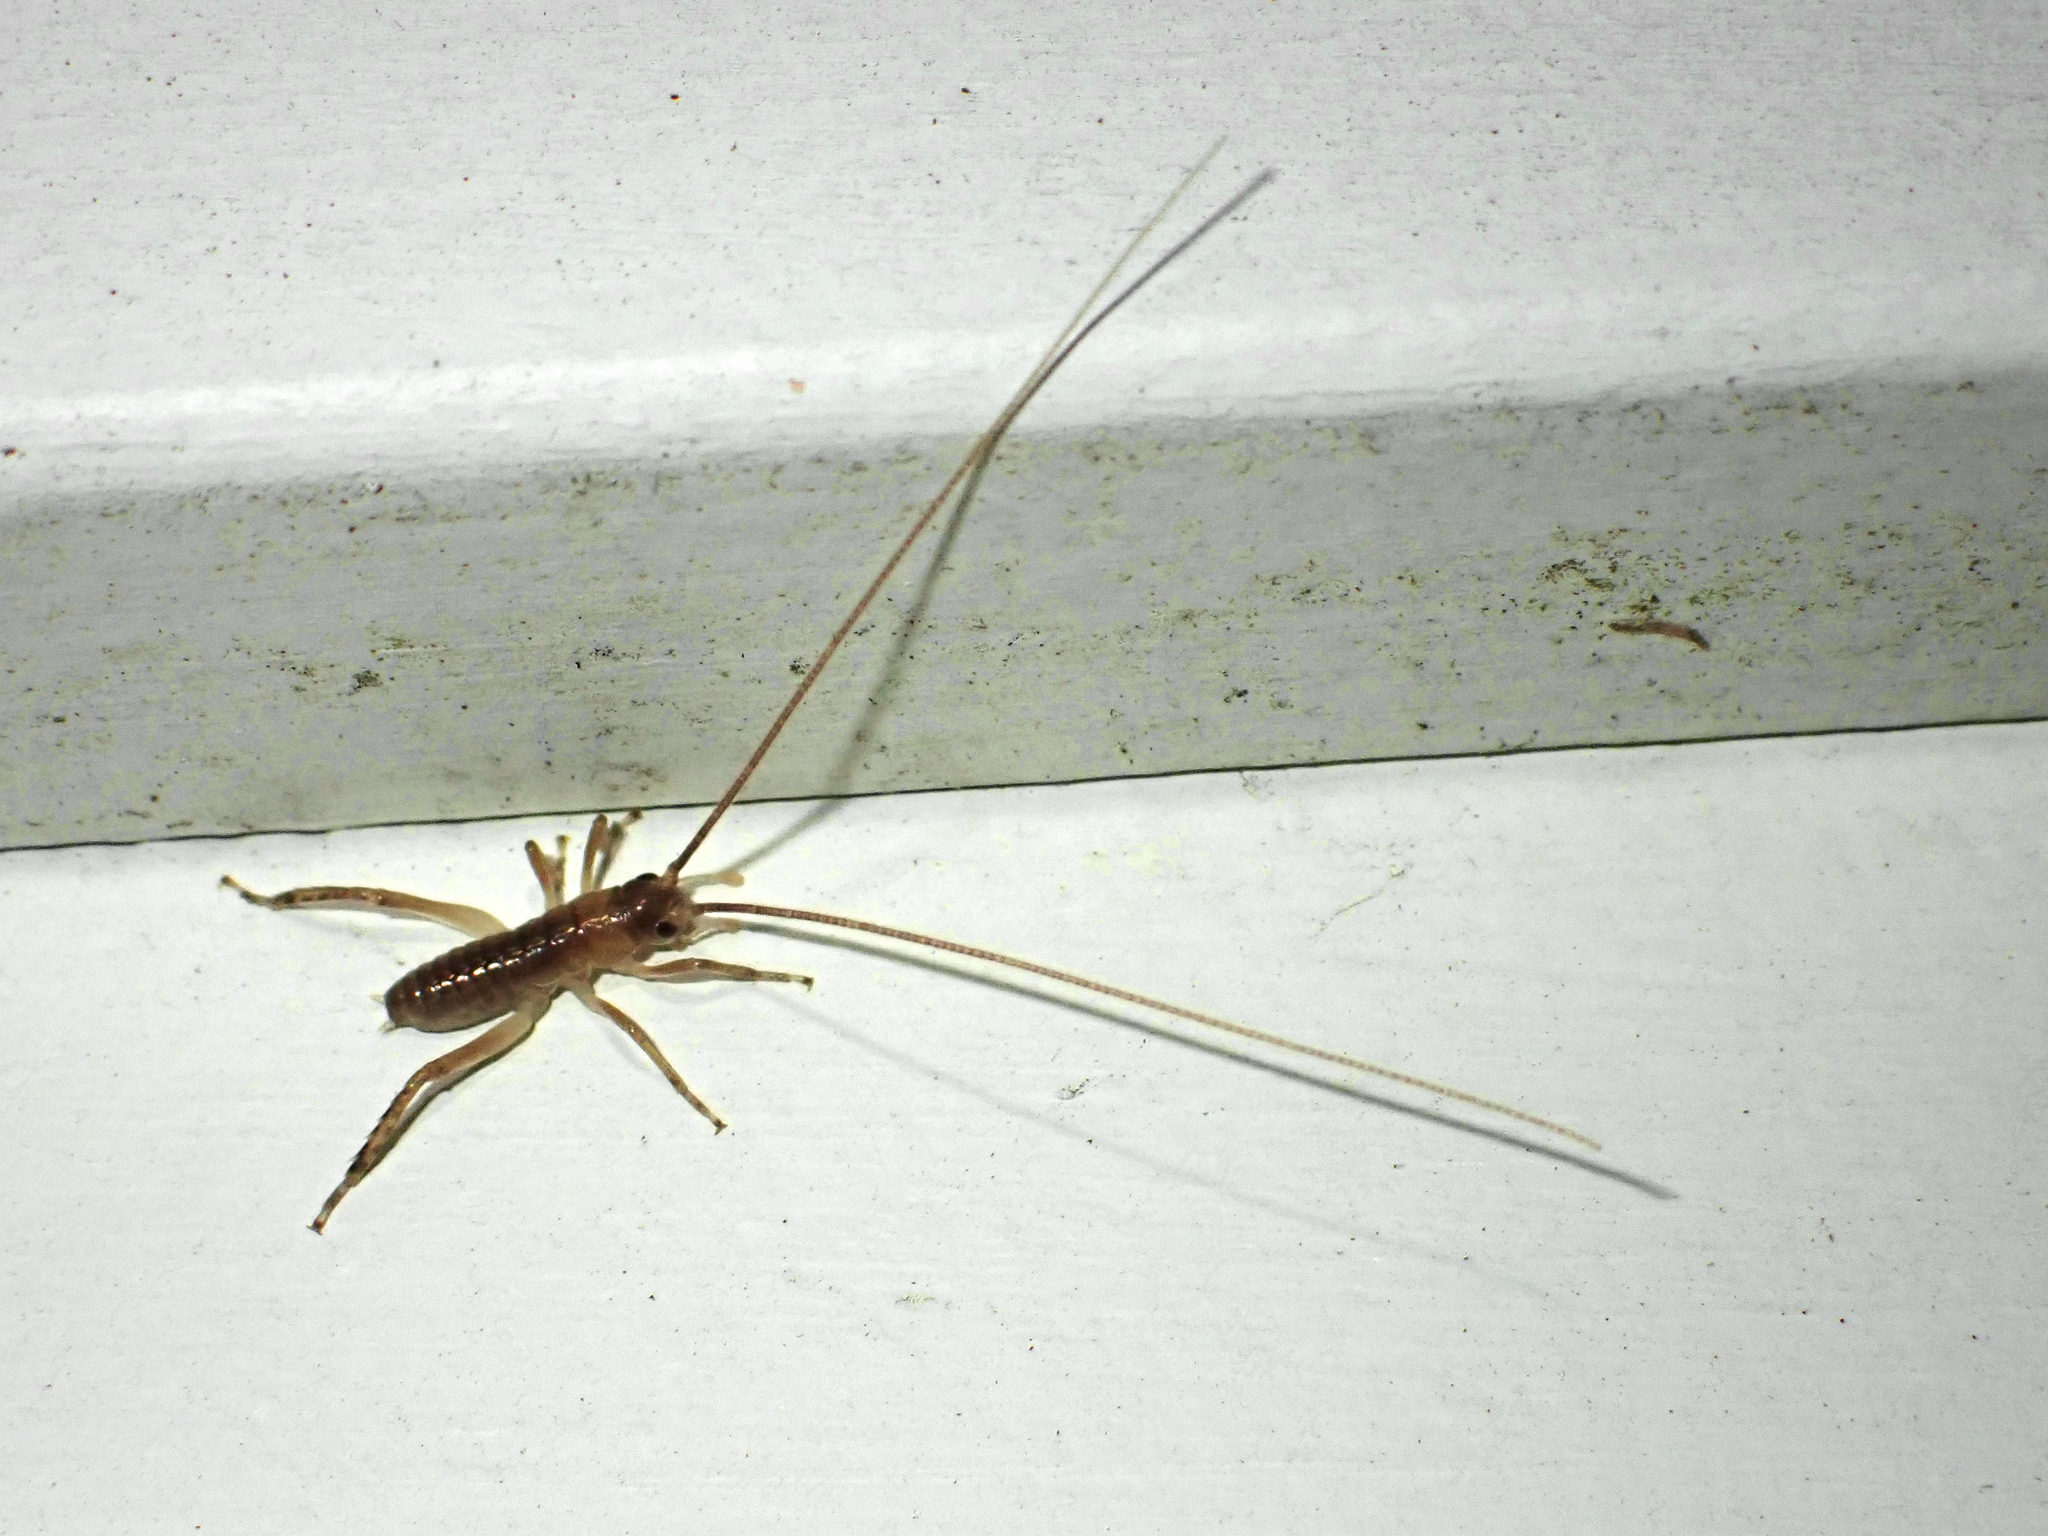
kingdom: Animalia
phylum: Arthropoda
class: Insecta
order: Orthoptera
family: Anostostomatidae
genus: Hemideina
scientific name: Hemideina thoracica
